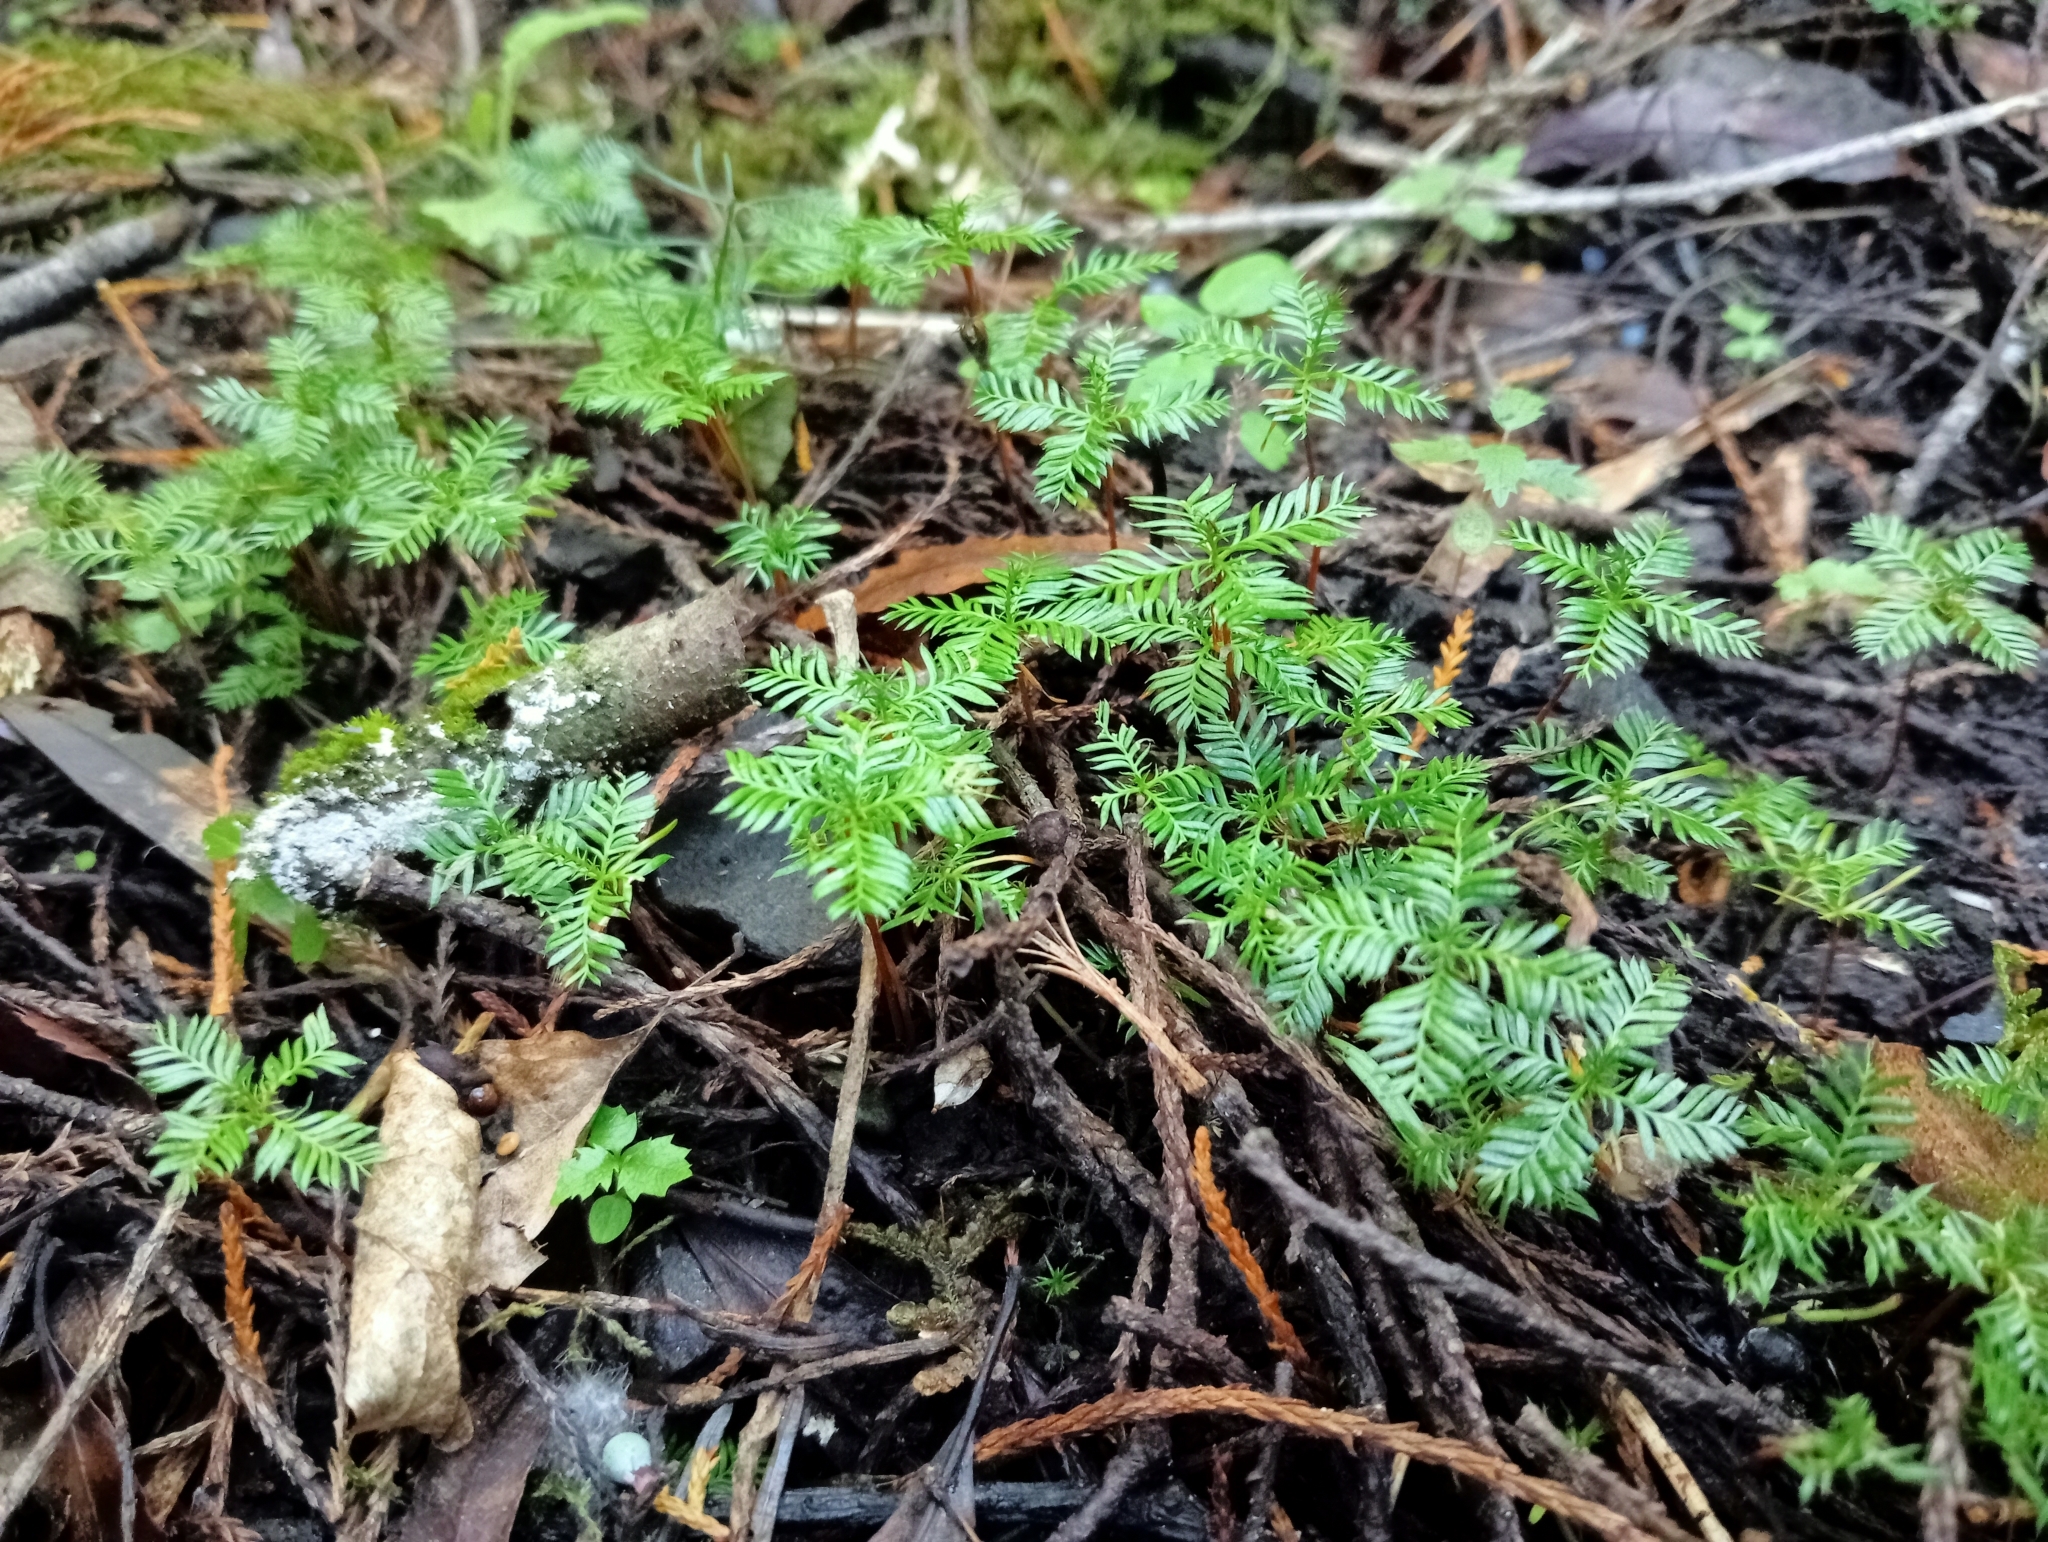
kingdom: Plantae
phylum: Tracheophyta
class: Pinopsida
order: Pinales
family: Podocarpaceae
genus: Dacrycarpus
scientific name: Dacrycarpus dacrydioides
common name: White pine
